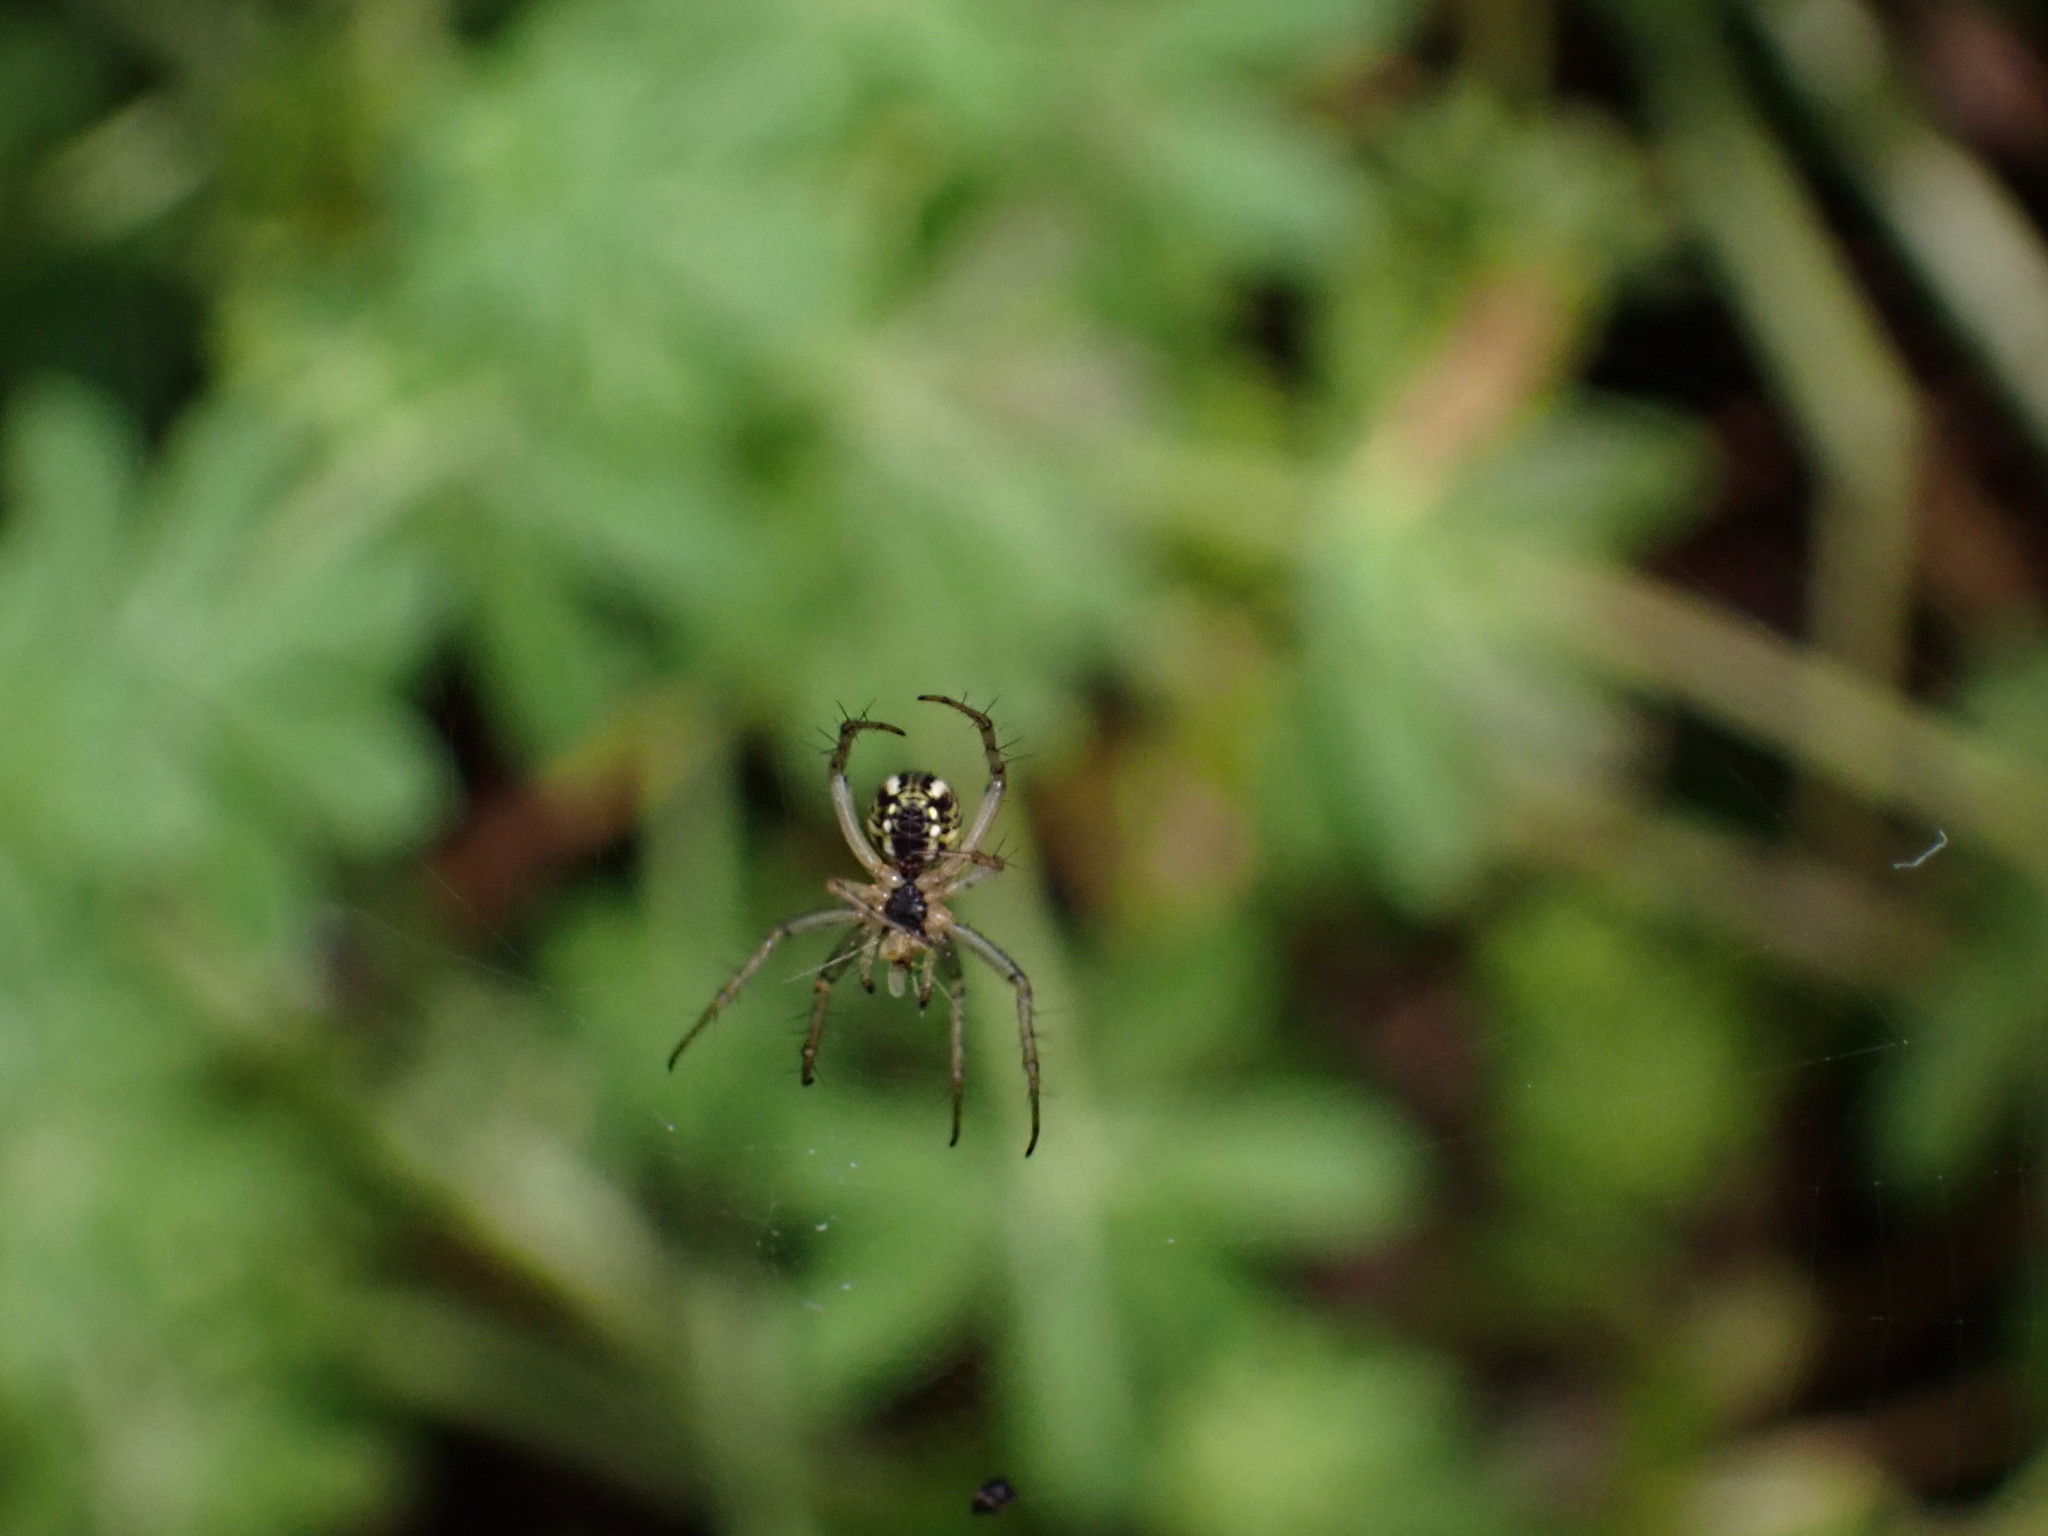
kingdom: Animalia
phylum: Arthropoda
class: Arachnida
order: Araneae
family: Araneidae
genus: Mangora
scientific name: Mangora acalypha
